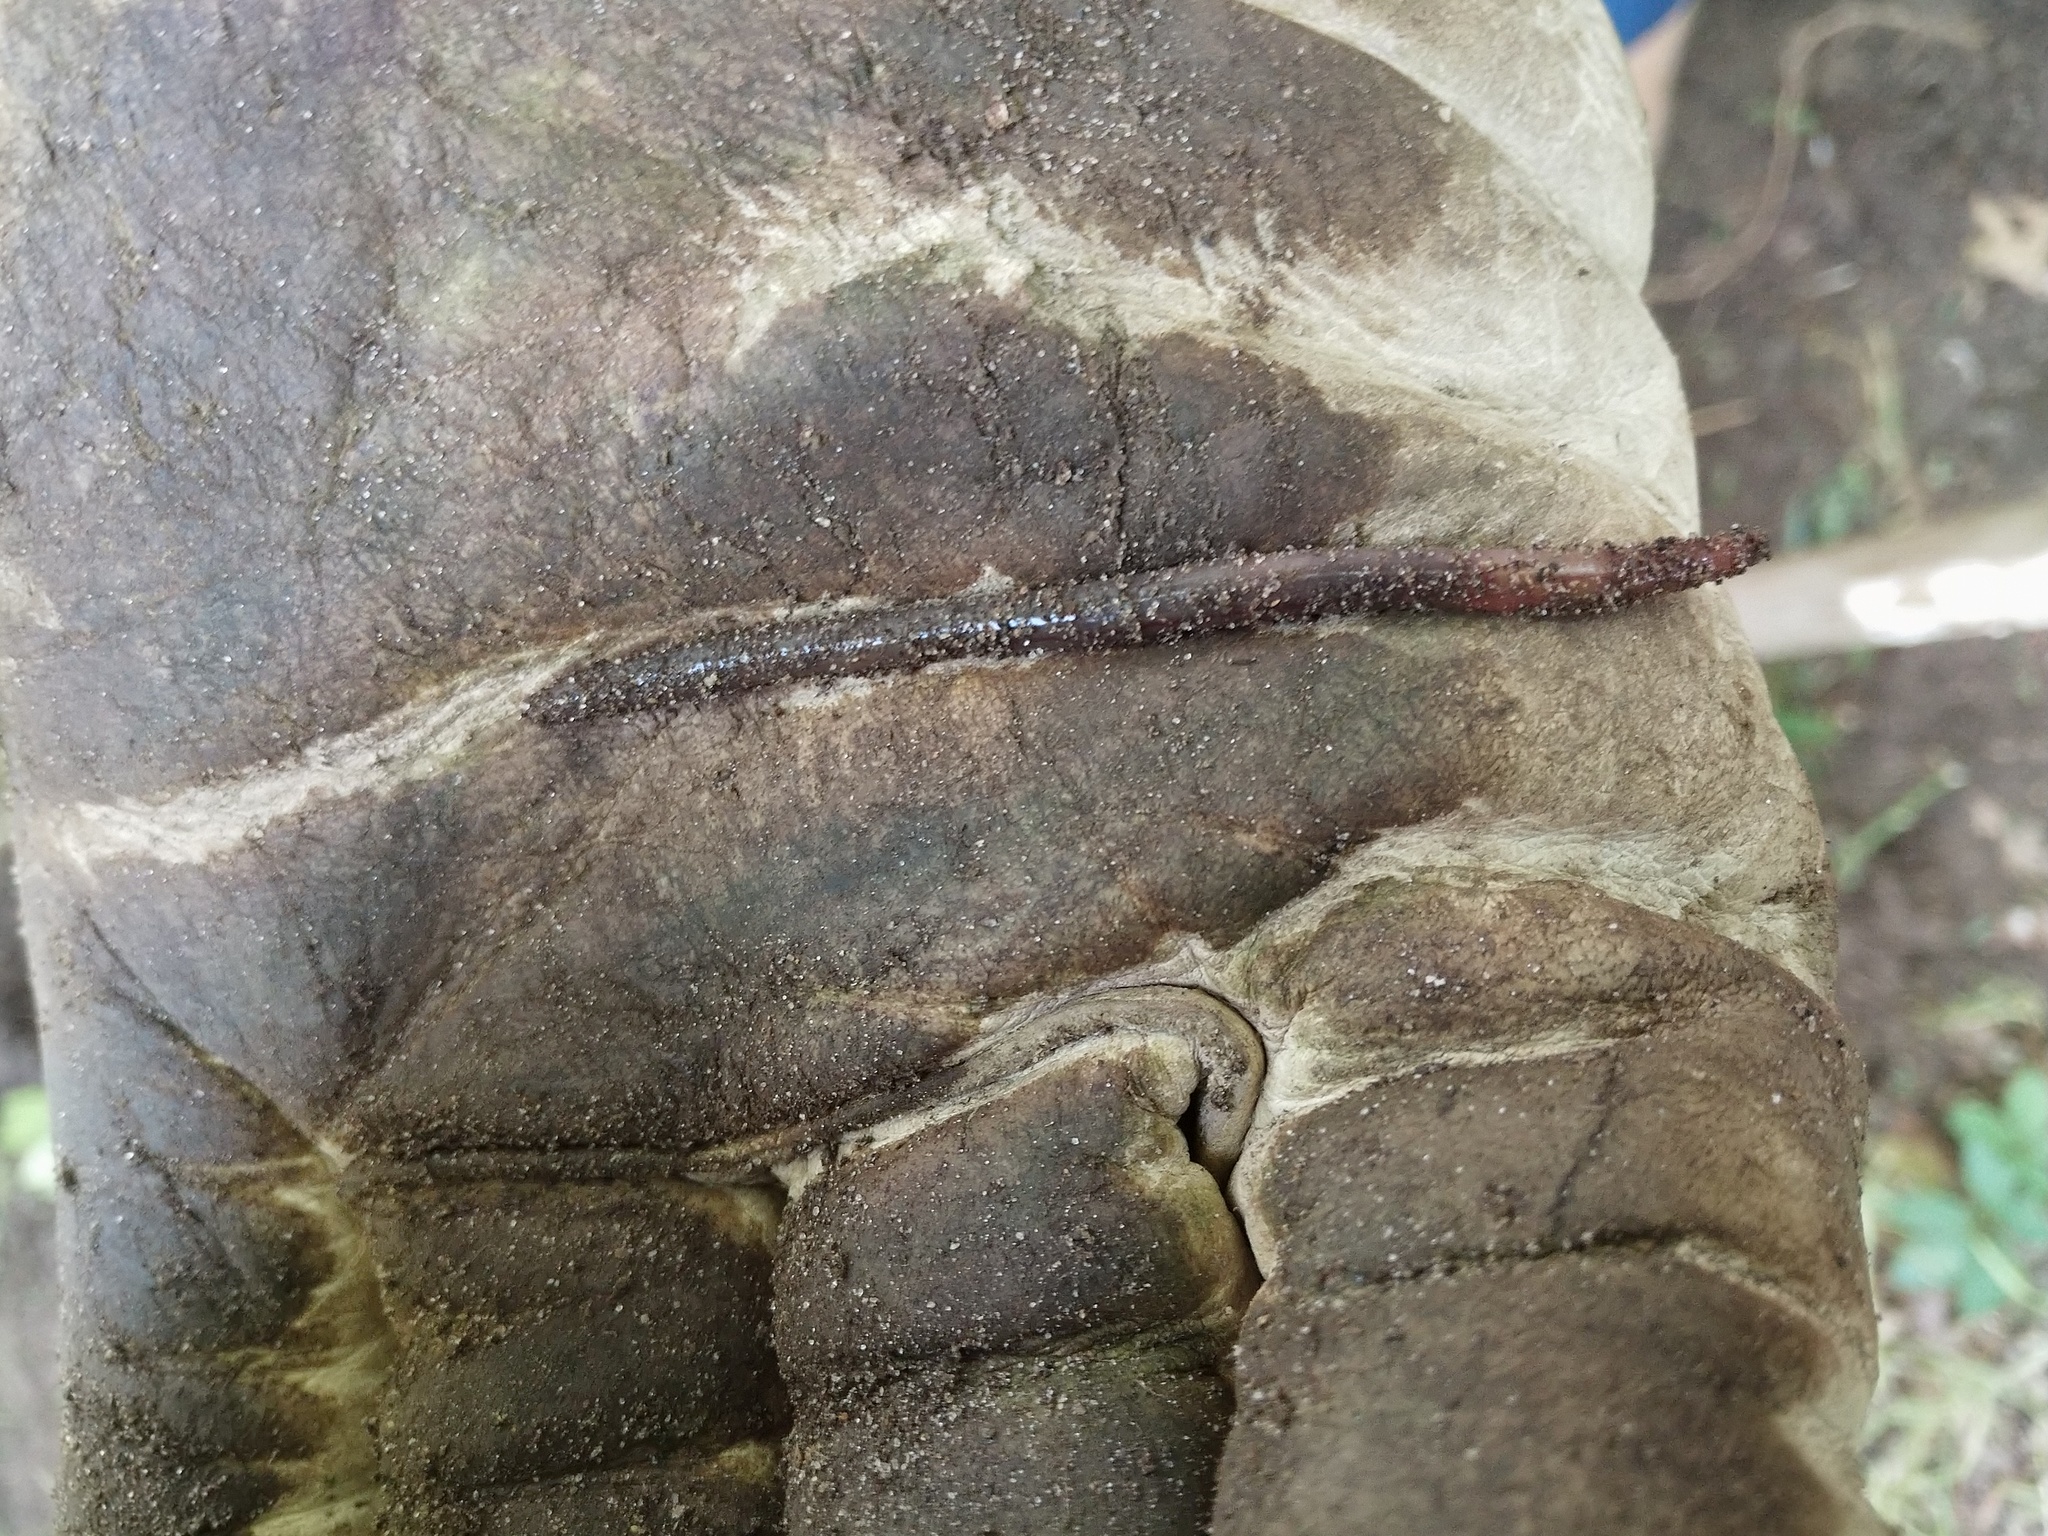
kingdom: Animalia
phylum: Annelida
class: Clitellata
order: Crassiclitellata
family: Lumbricidae
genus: Lumbricus
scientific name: Lumbricus terrestris
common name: Common earthworm
